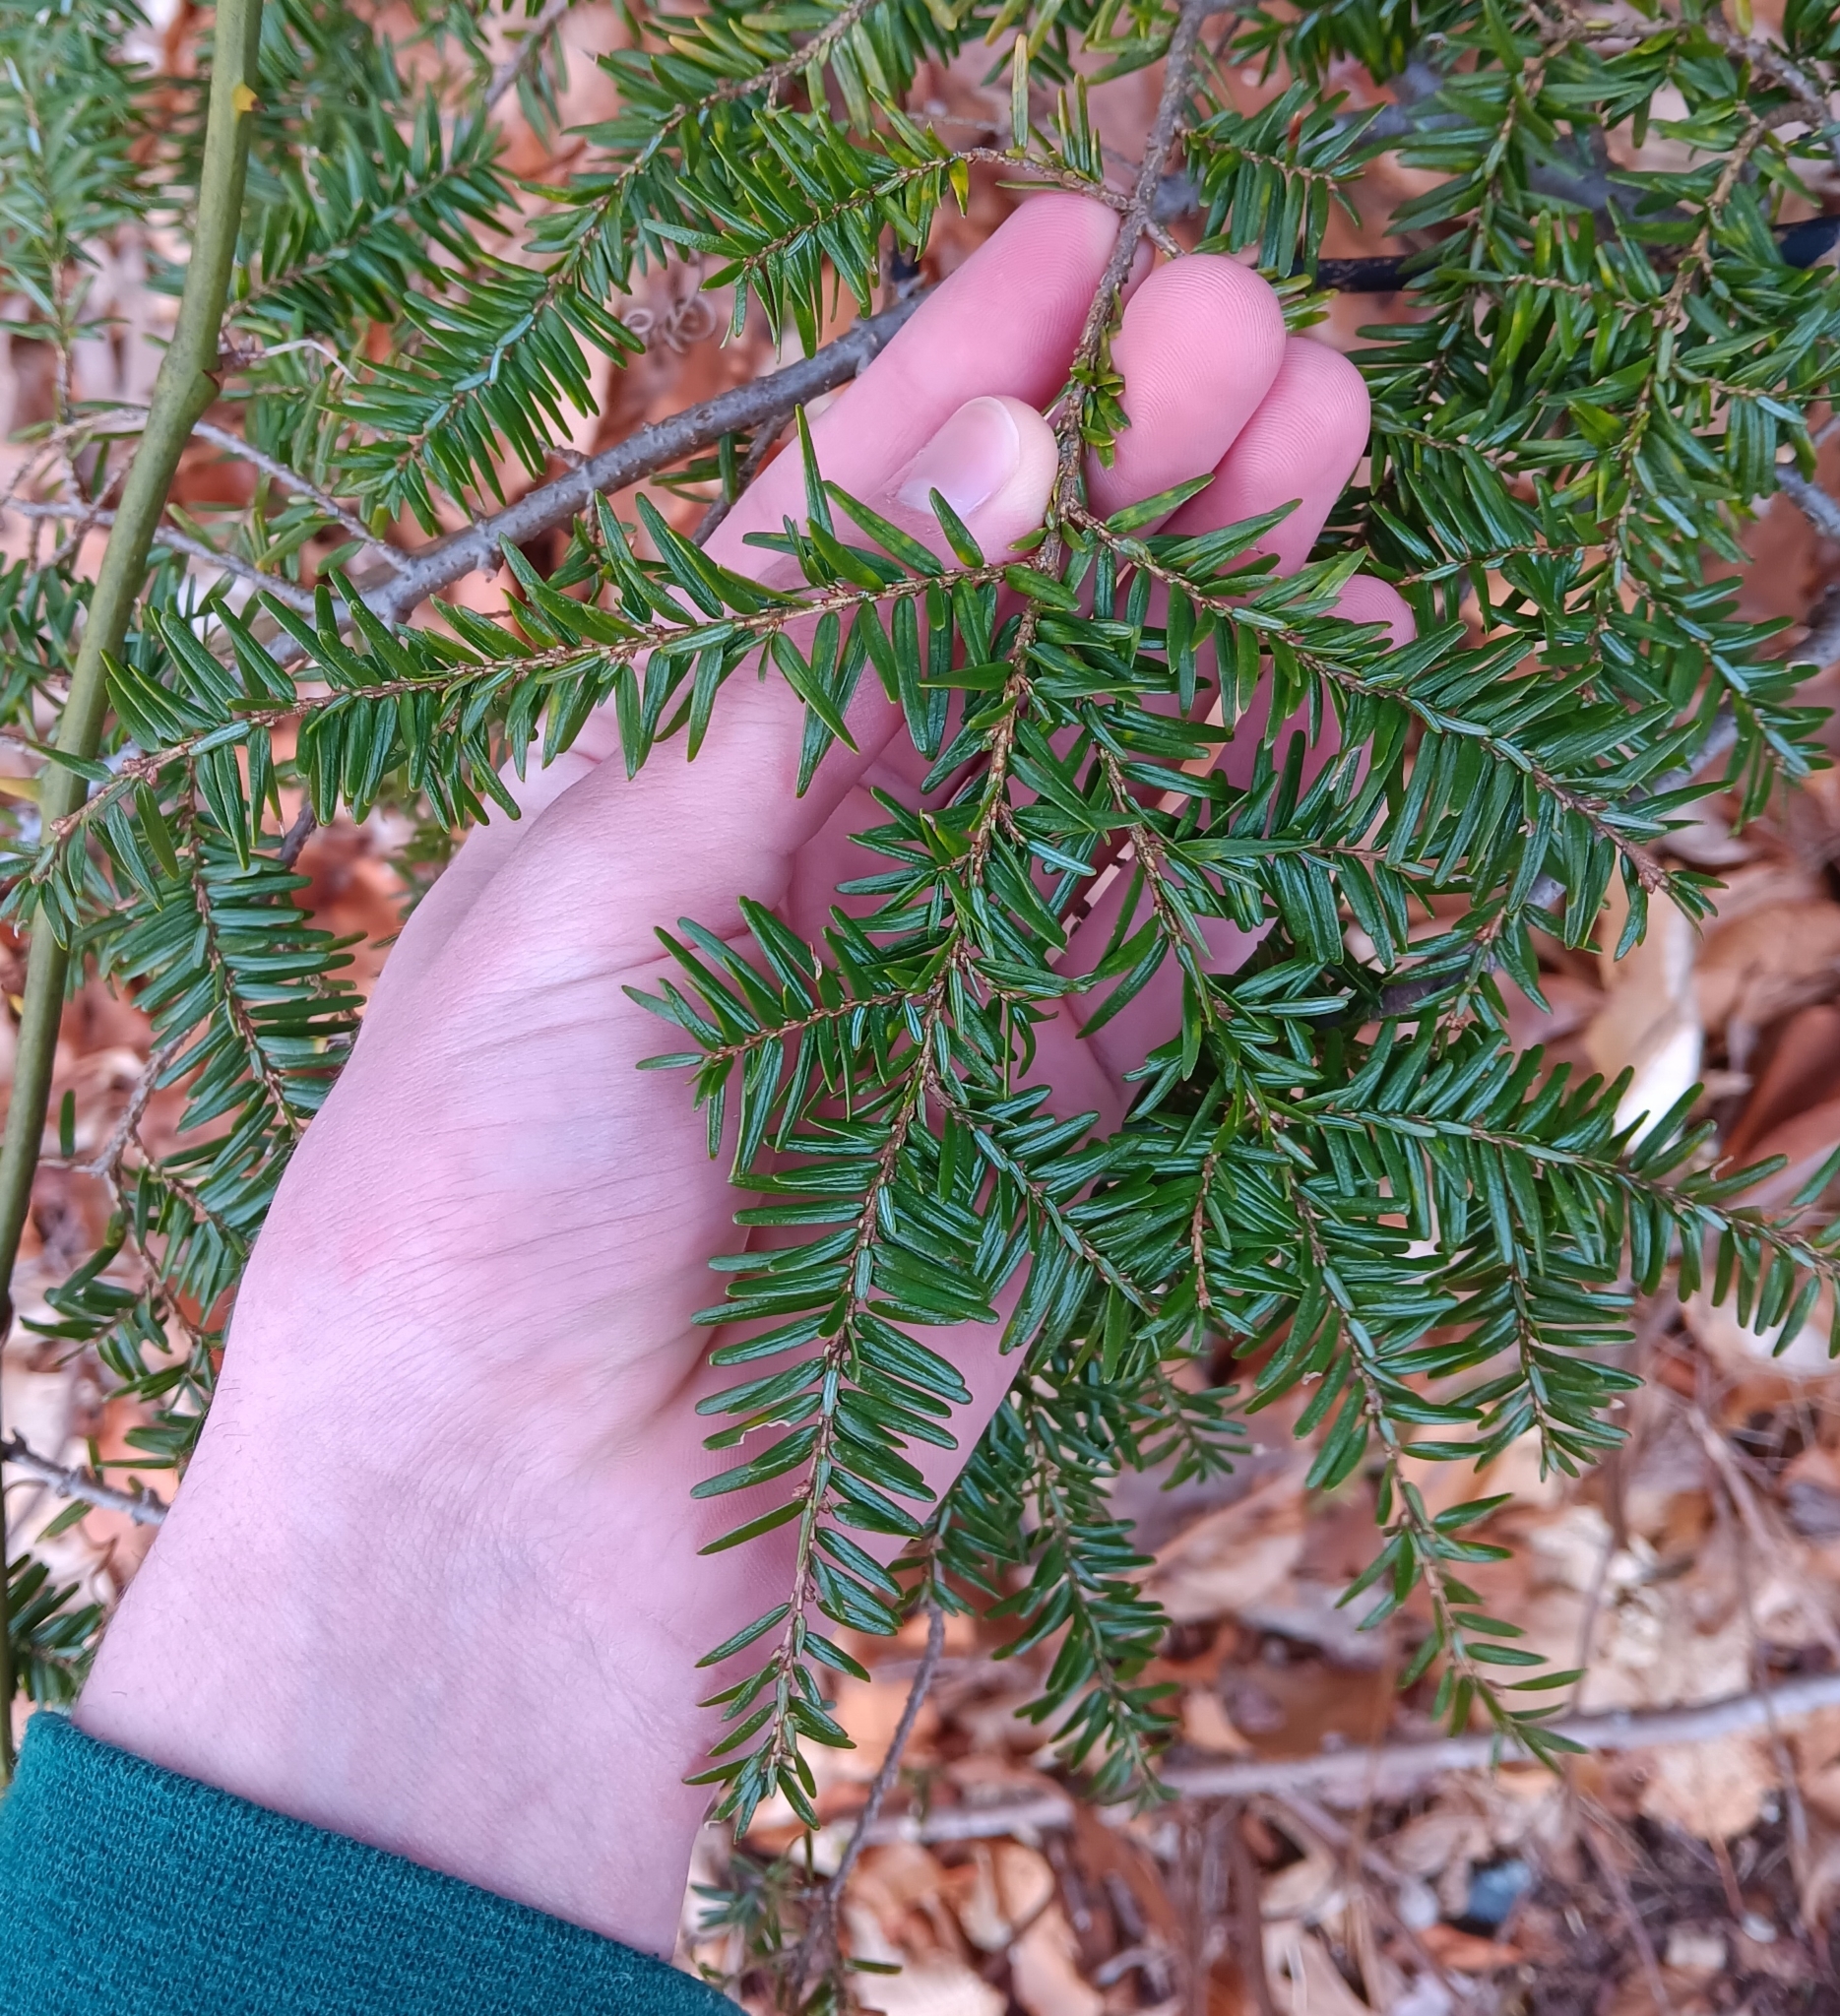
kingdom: Plantae
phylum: Tracheophyta
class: Pinopsida
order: Pinales
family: Pinaceae
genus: Tsuga
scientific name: Tsuga canadensis
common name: Eastern hemlock
